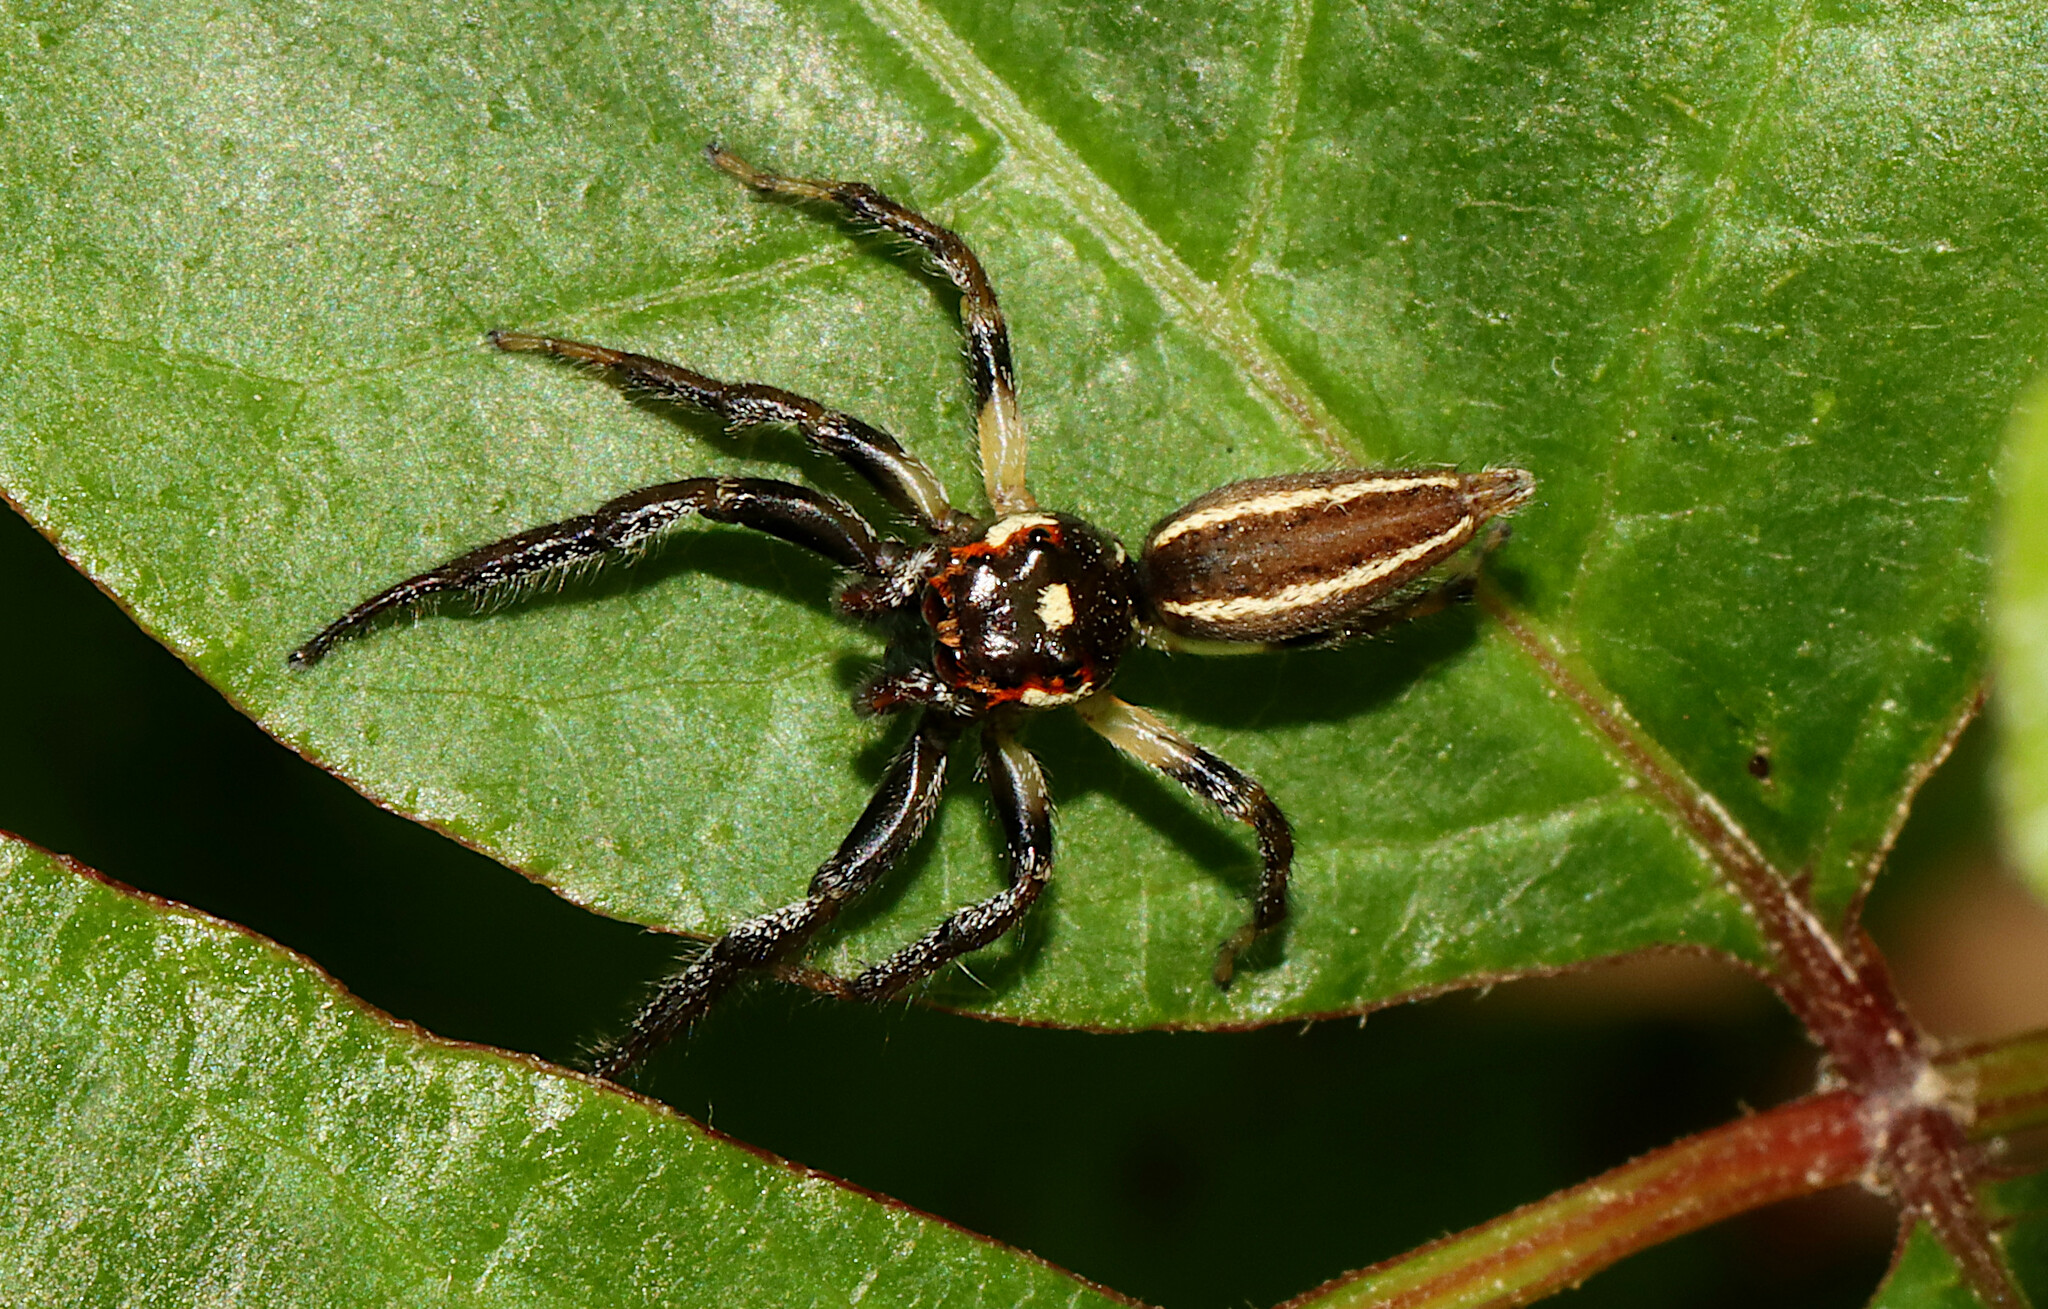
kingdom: Animalia
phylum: Arthropoda
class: Arachnida
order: Araneae
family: Salticidae
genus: Colonus
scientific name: Colonus sylvanus
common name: Jumping spiders
